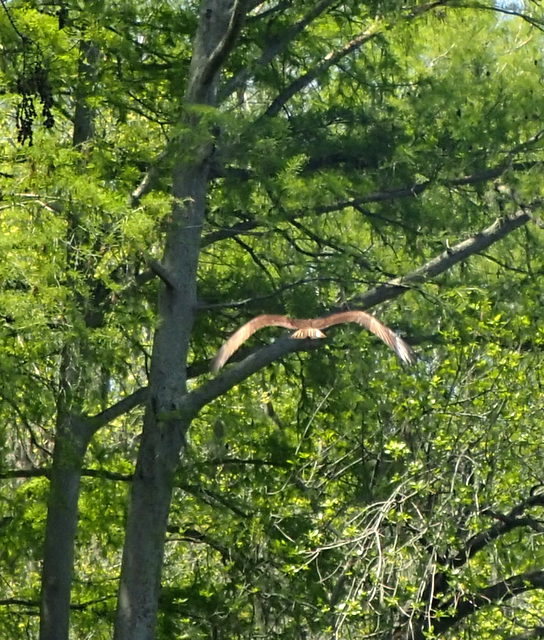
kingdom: Animalia
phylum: Chordata
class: Aves
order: Accipitriformes
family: Pandionidae
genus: Pandion
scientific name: Pandion haliaetus
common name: Osprey
